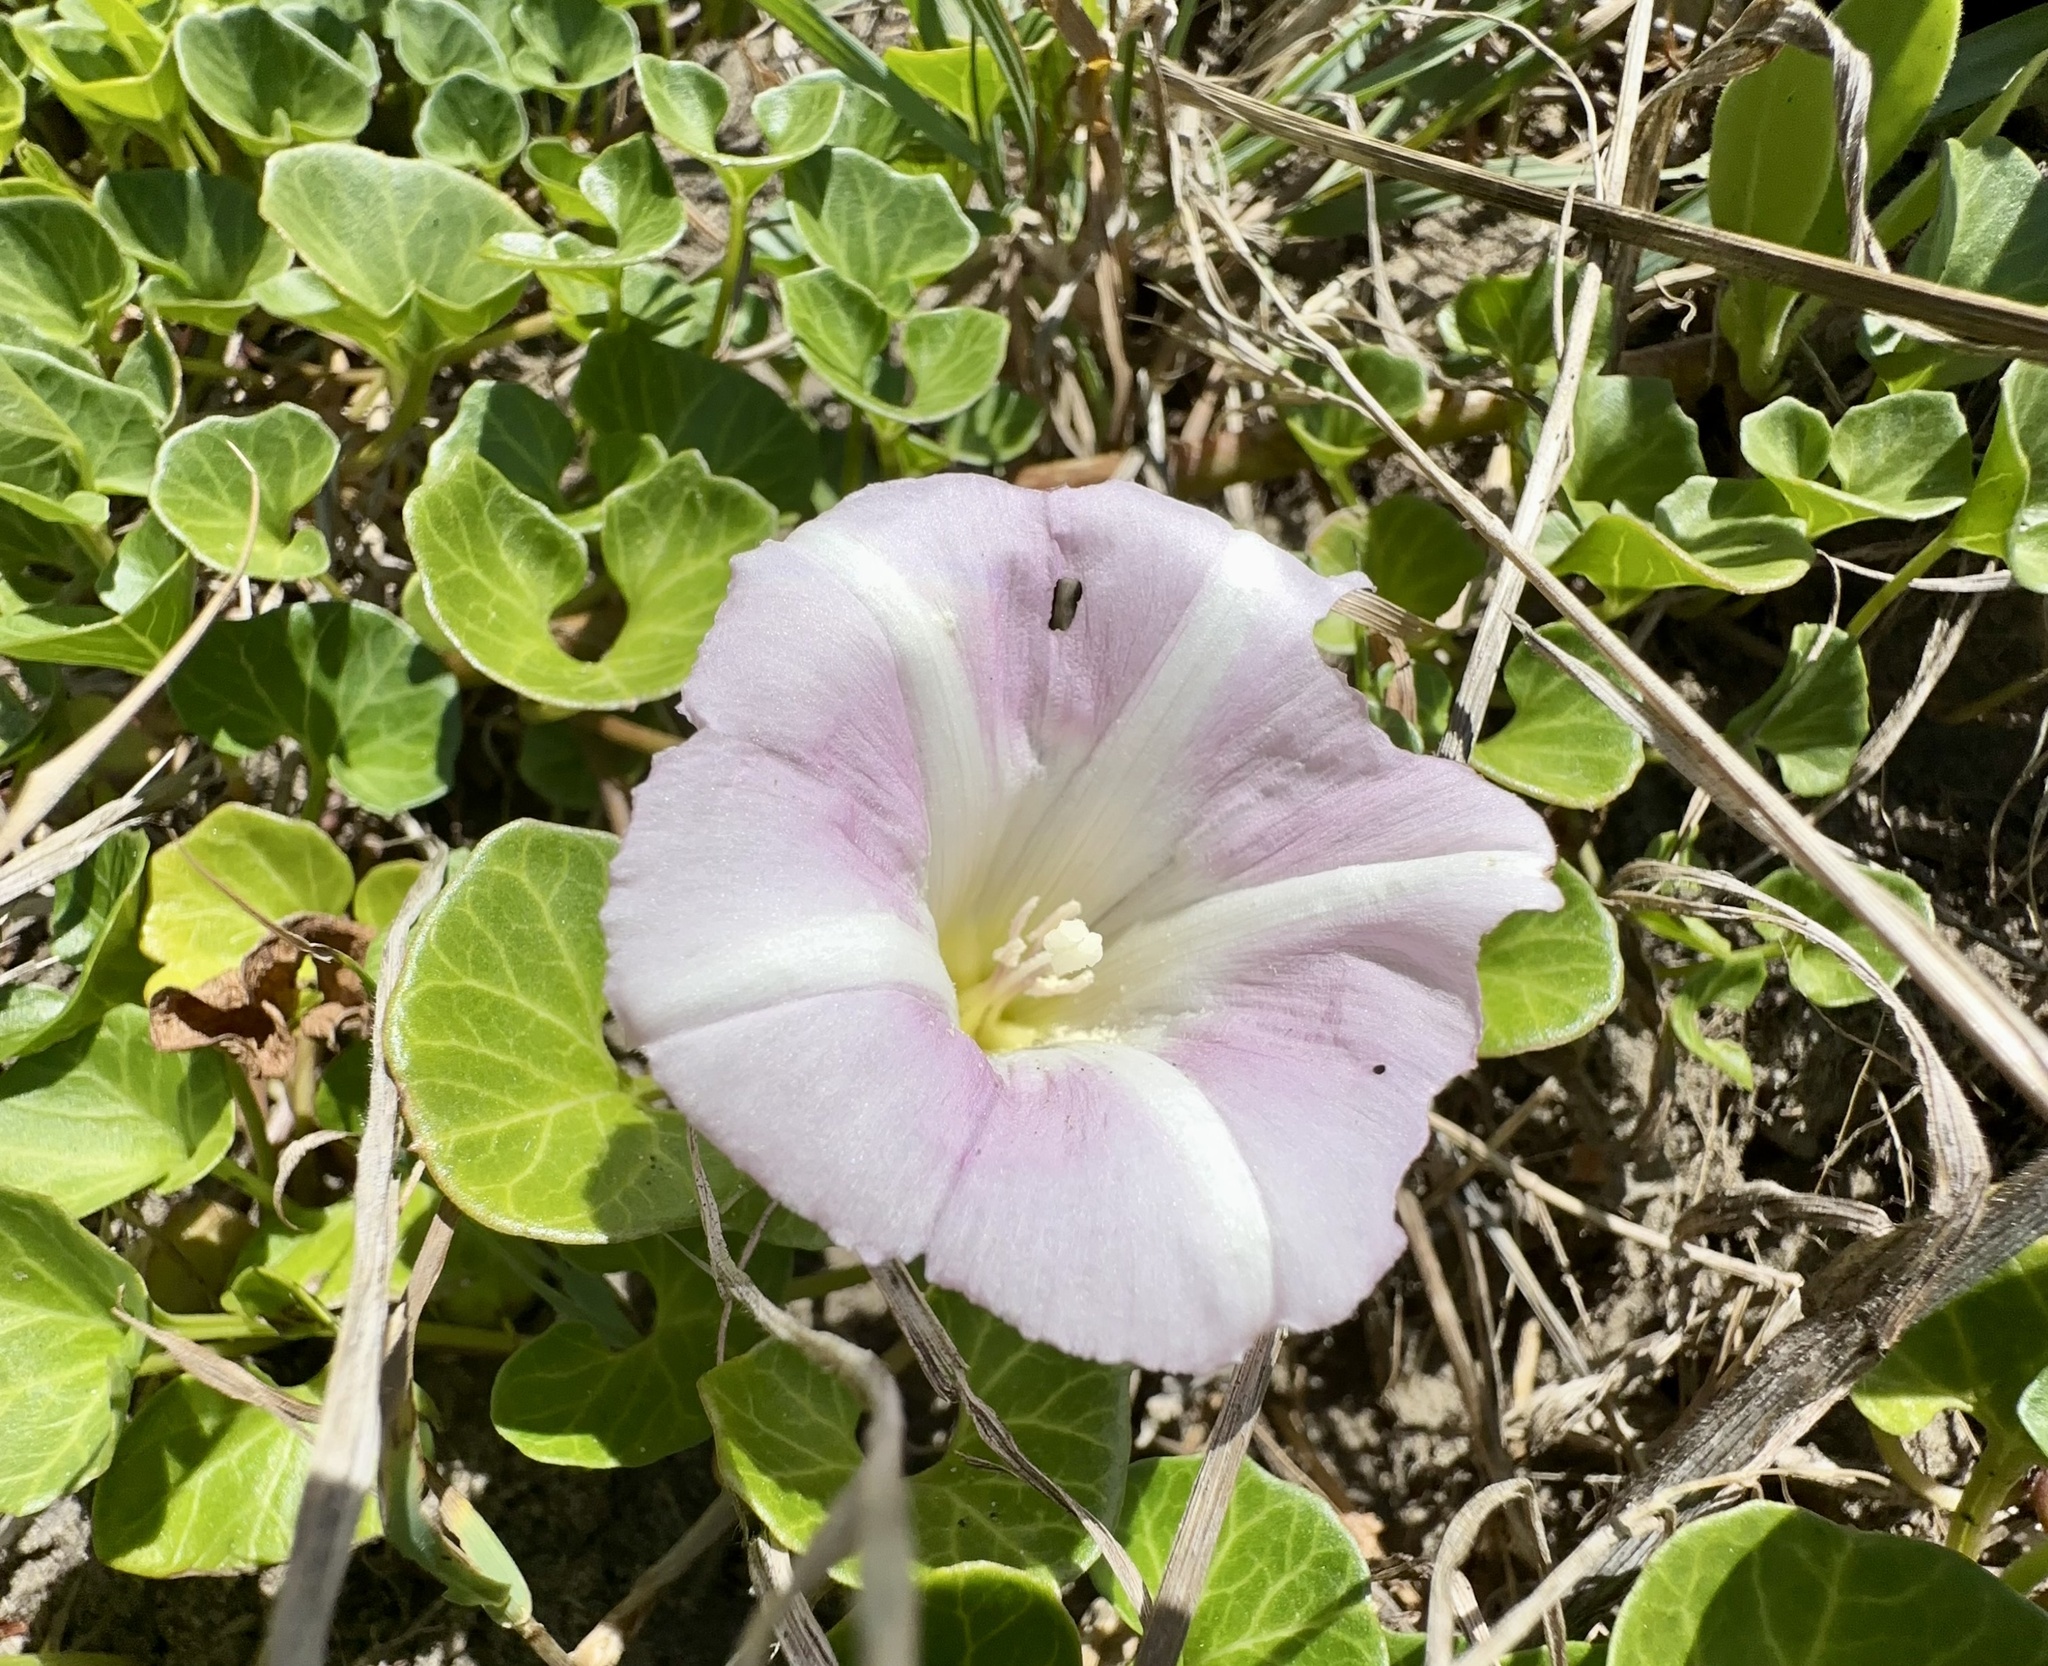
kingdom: Plantae
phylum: Tracheophyta
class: Magnoliopsida
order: Solanales
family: Convolvulaceae
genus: Calystegia
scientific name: Calystegia soldanella
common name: Sea bindweed
